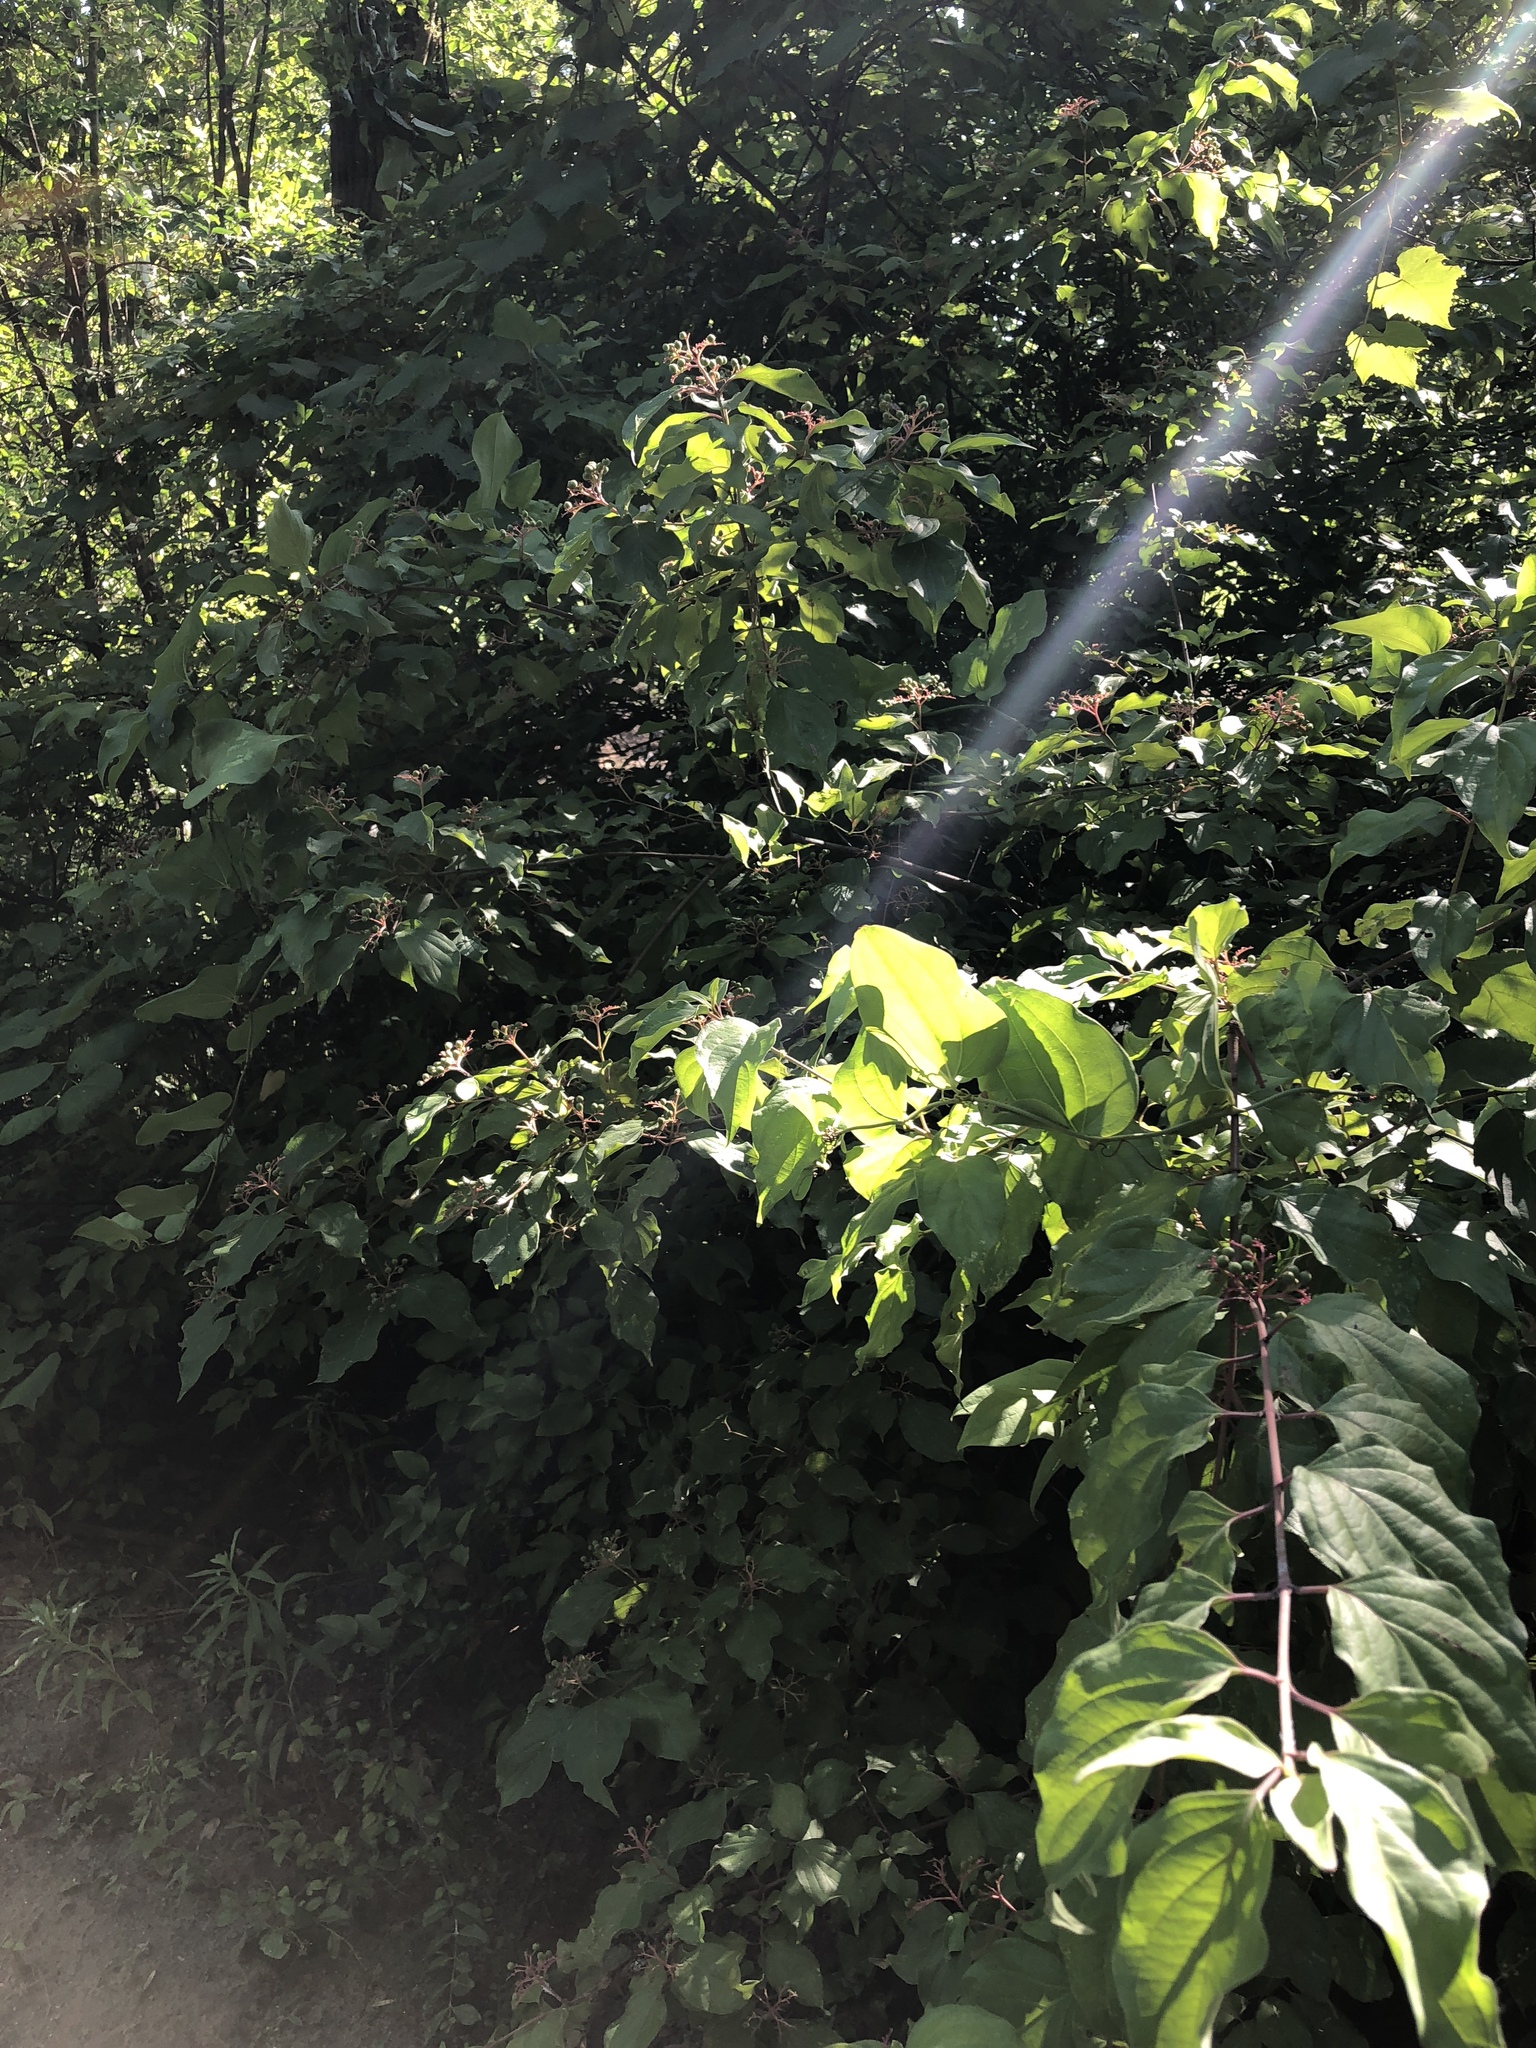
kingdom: Plantae
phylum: Tracheophyta
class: Magnoliopsida
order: Cornales
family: Cornaceae
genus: Cornus
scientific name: Cornus drummondii
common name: Rough-leaf dogwood
